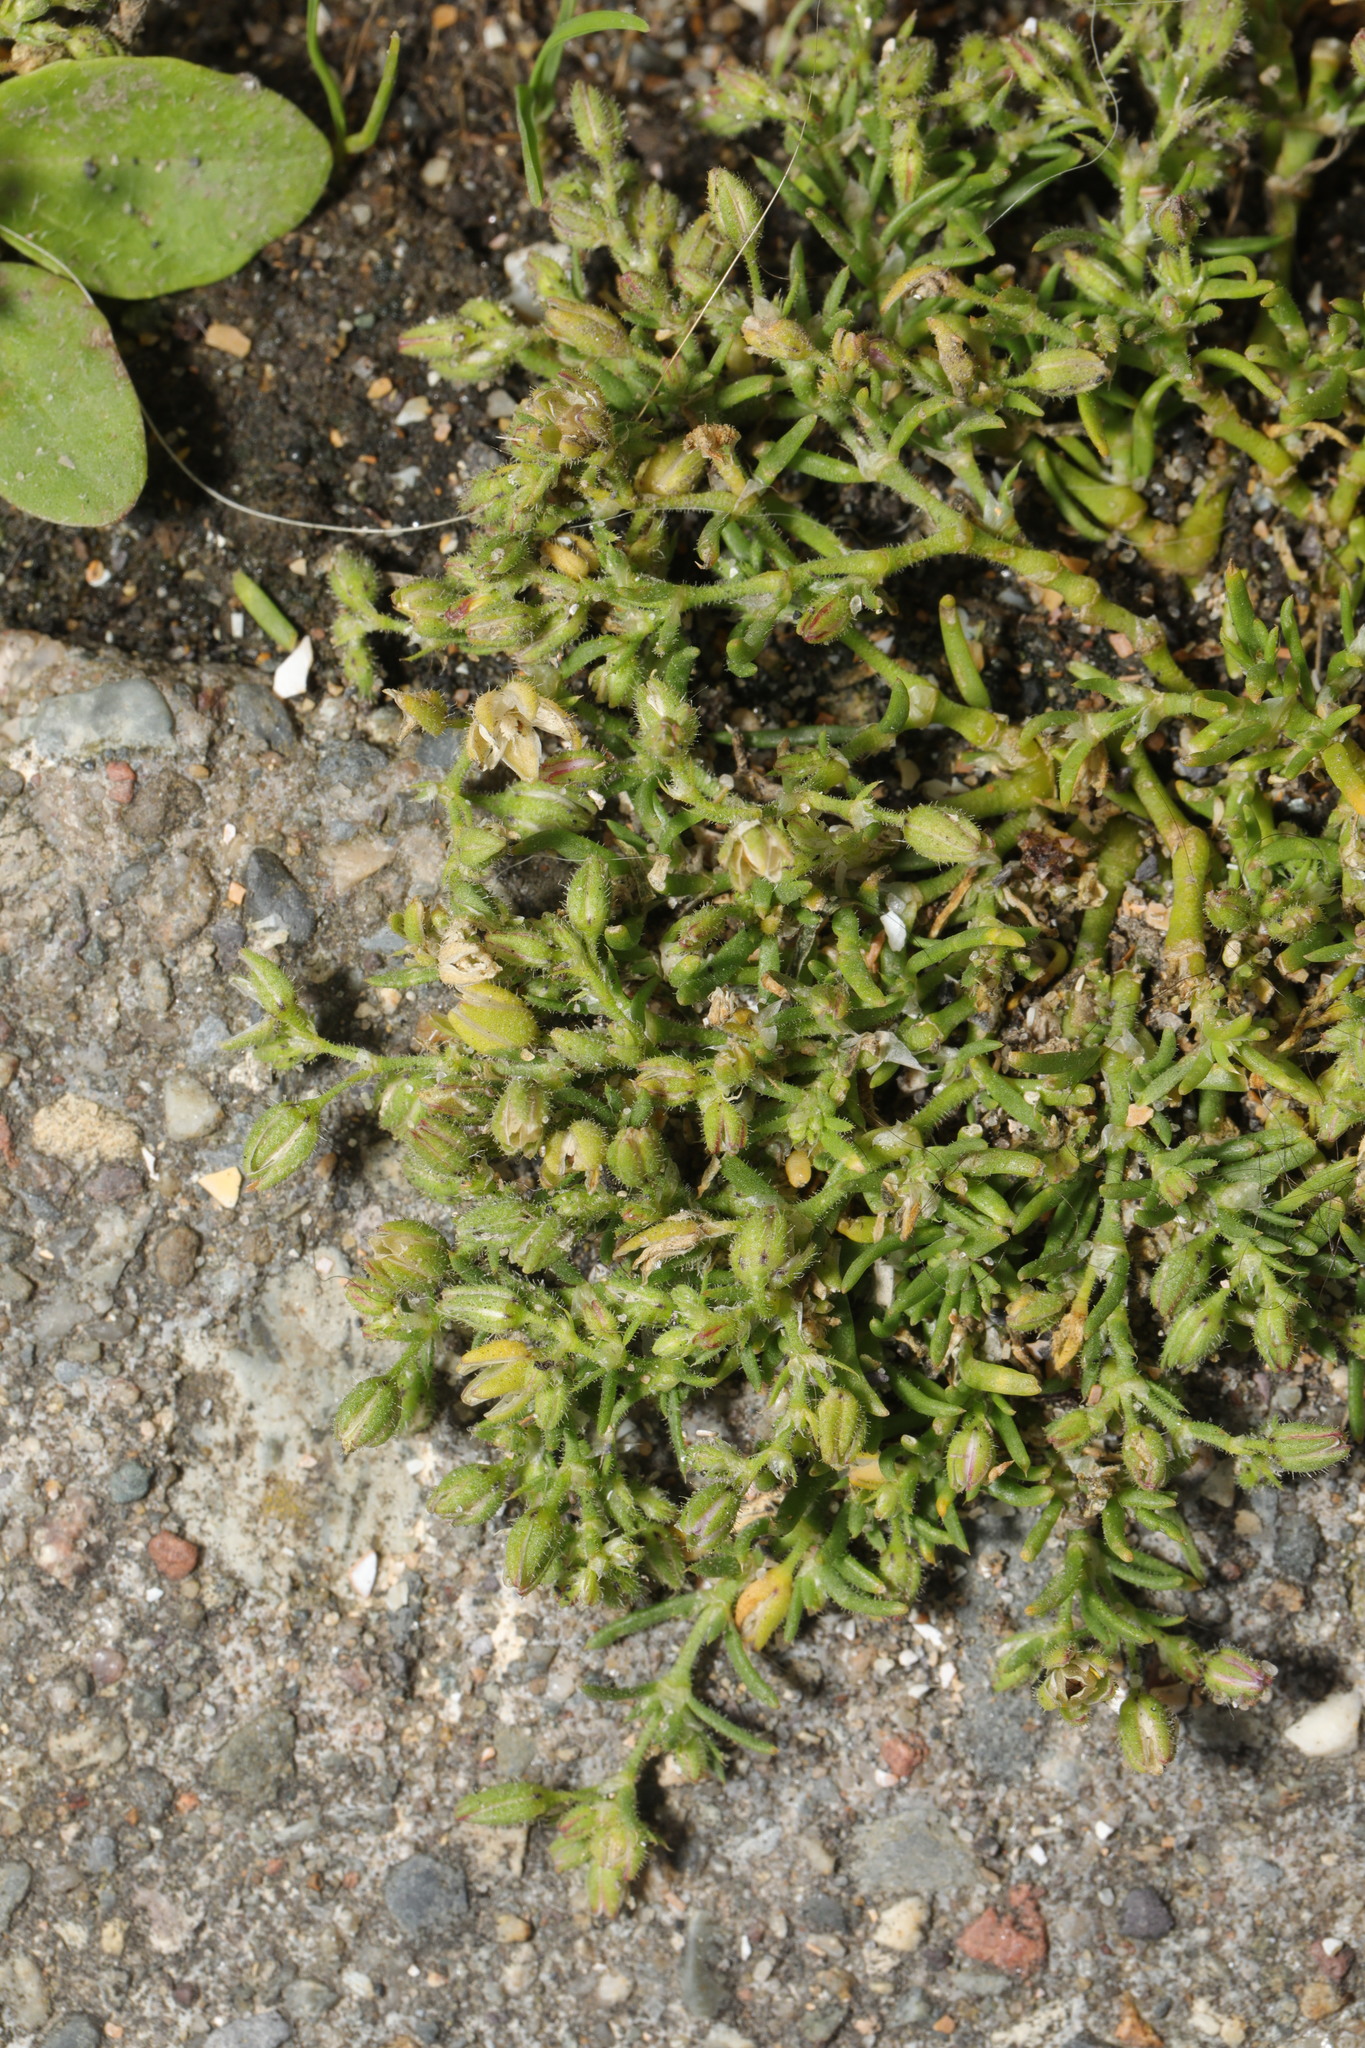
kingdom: Plantae
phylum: Tracheophyta
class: Magnoliopsida
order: Caryophyllales
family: Caryophyllaceae
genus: Spergularia
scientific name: Spergularia marina
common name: Lesser sea-spurrey
